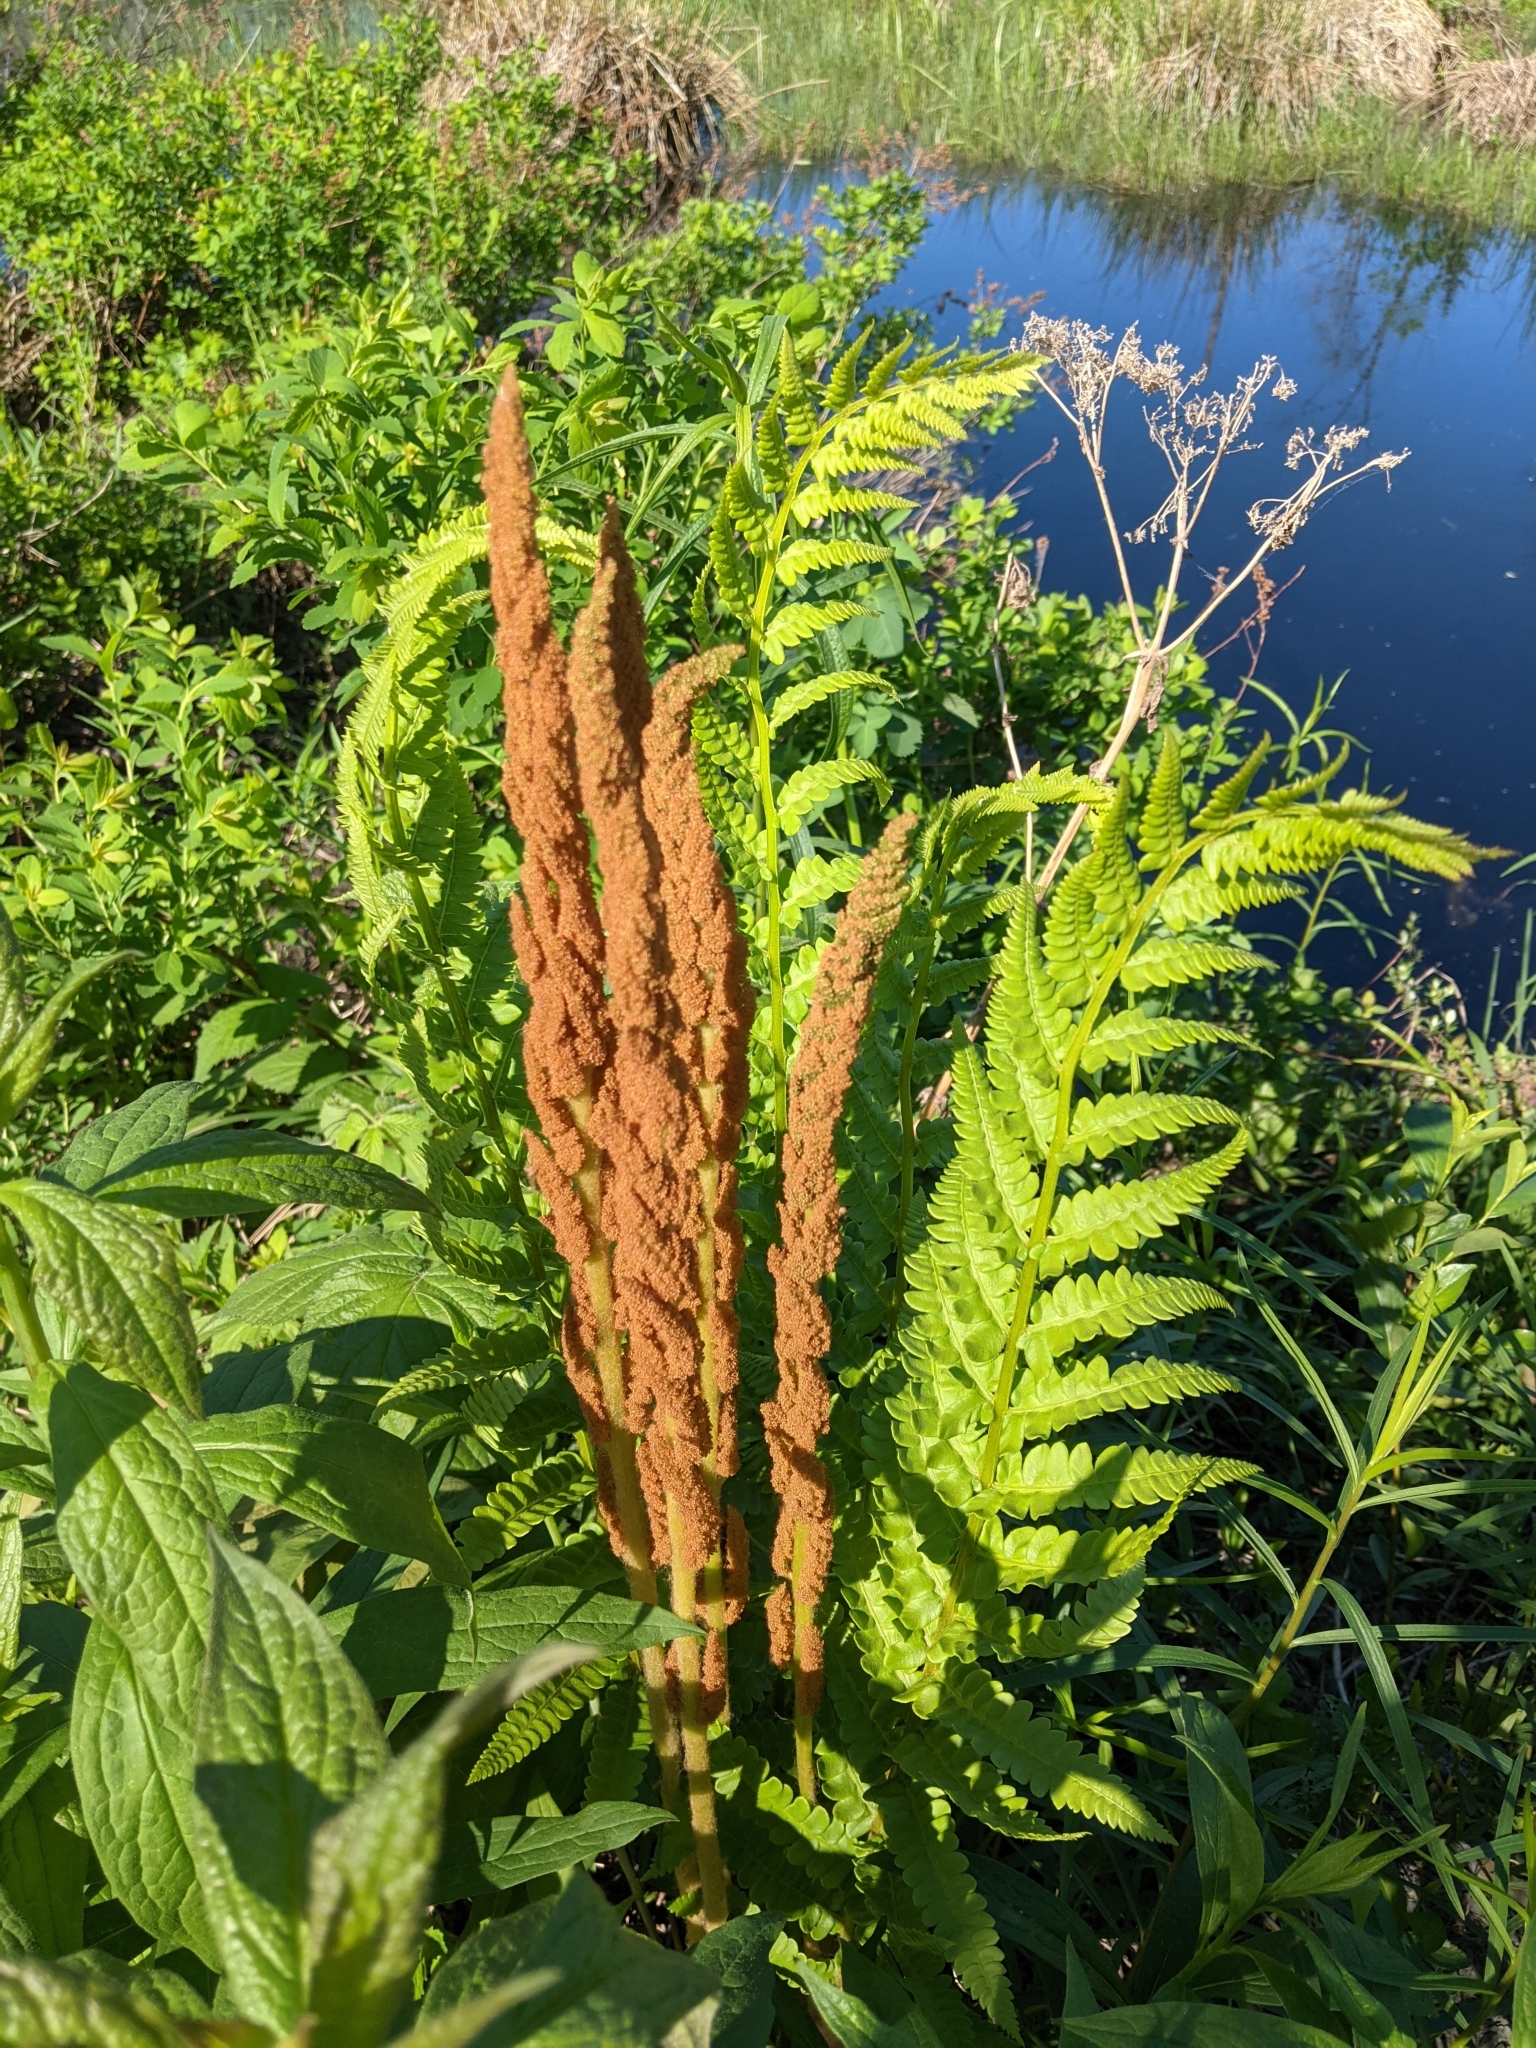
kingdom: Plantae
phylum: Tracheophyta
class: Polypodiopsida
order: Osmundales
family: Osmundaceae
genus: Osmundastrum
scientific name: Osmundastrum cinnamomeum
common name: Cinnamon fern
